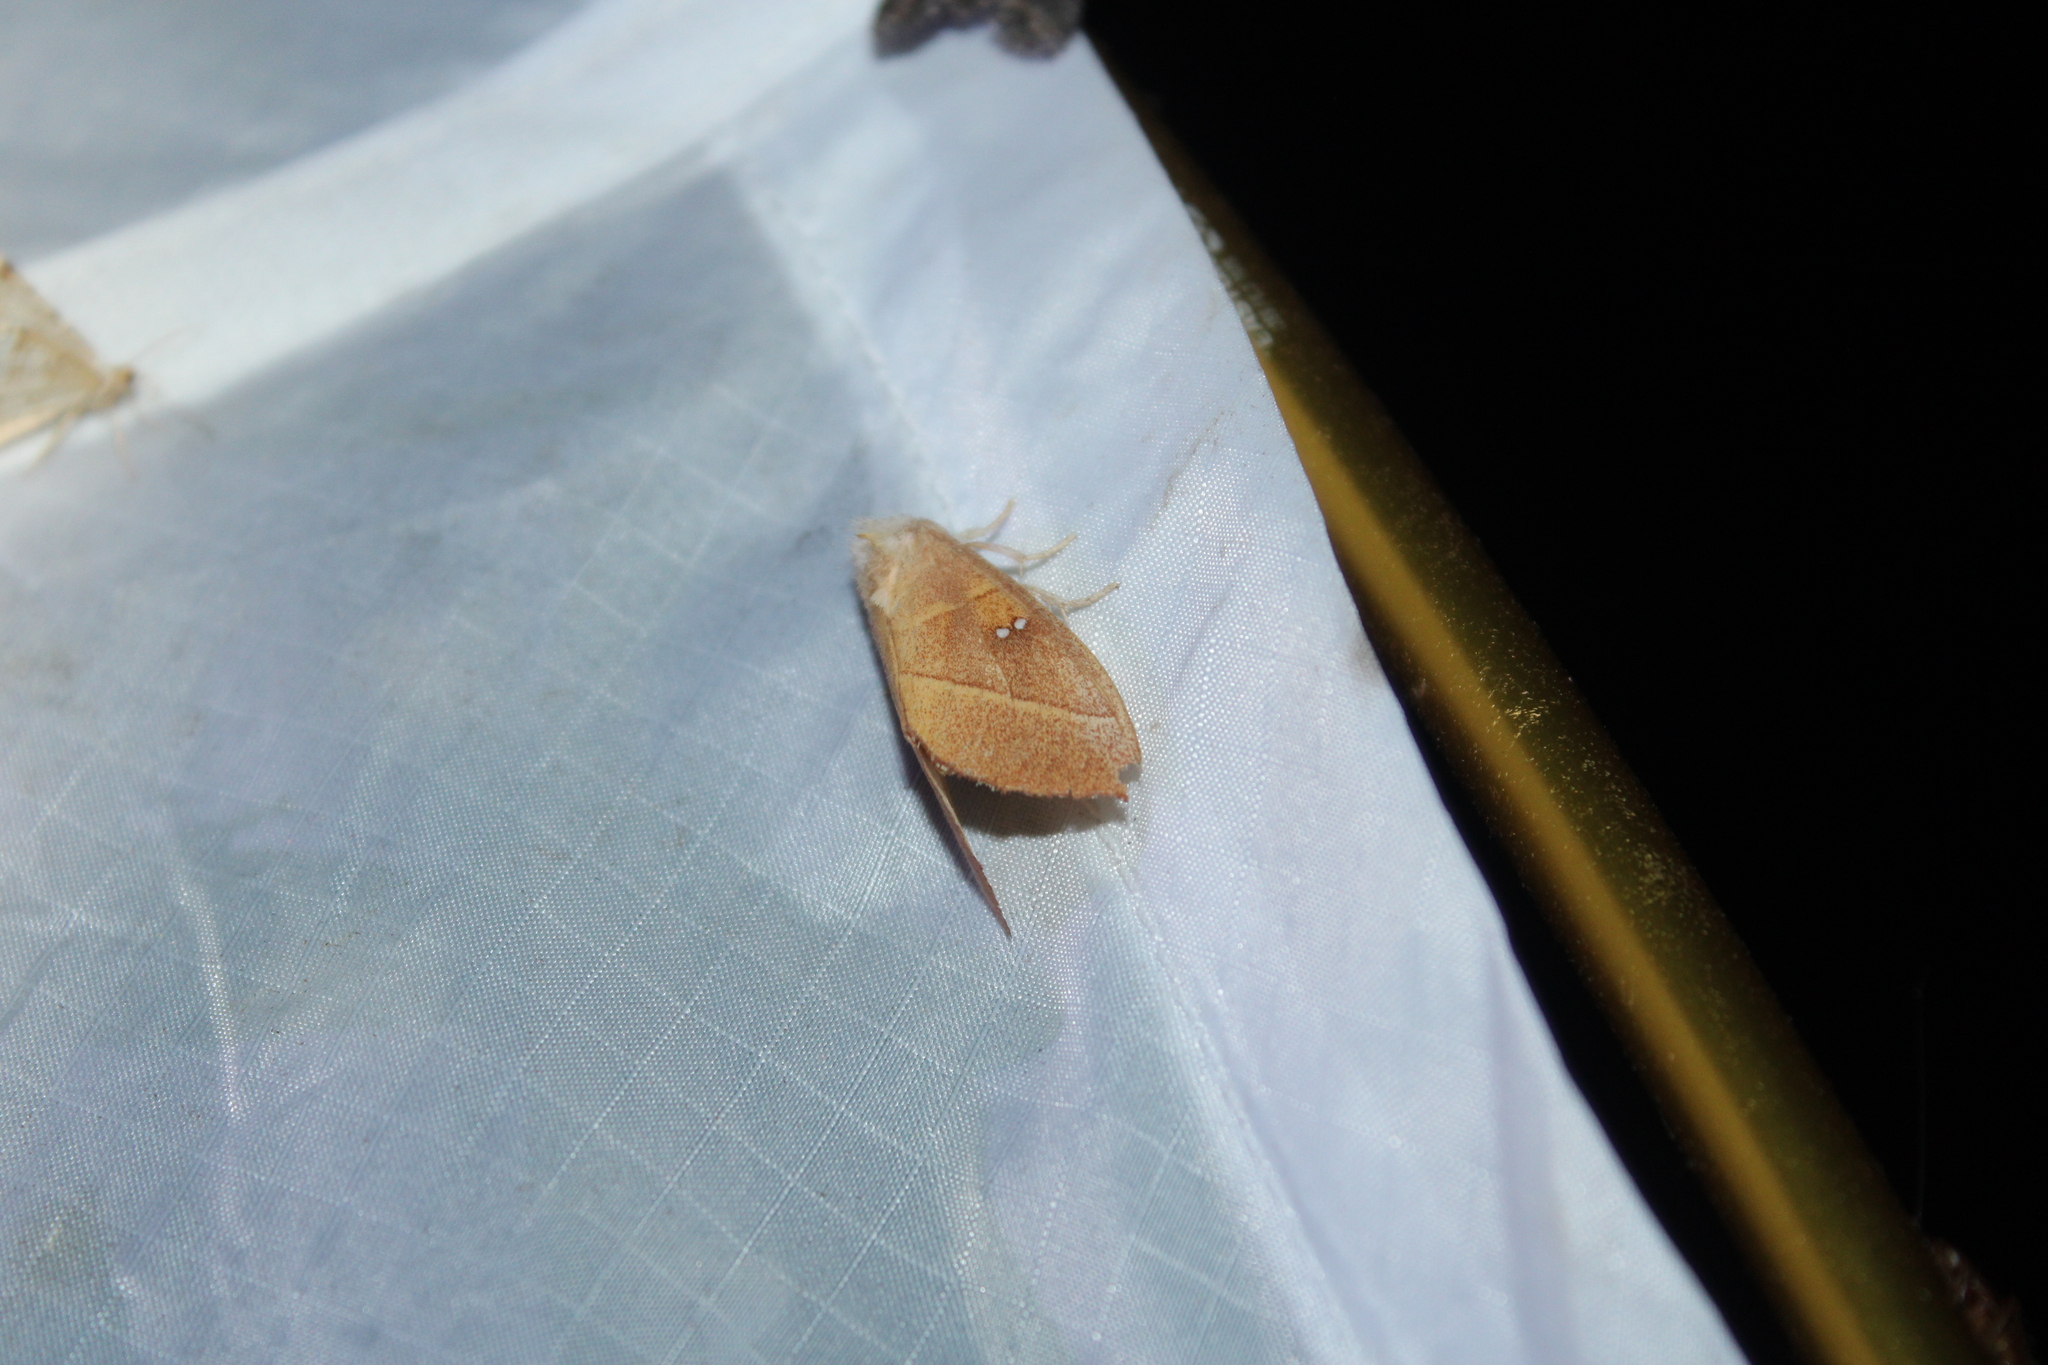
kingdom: Animalia
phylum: Arthropoda
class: Insecta
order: Lepidoptera
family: Notodontidae
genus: Nadata
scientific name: Nadata gibbosa
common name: White-dotted prominent
